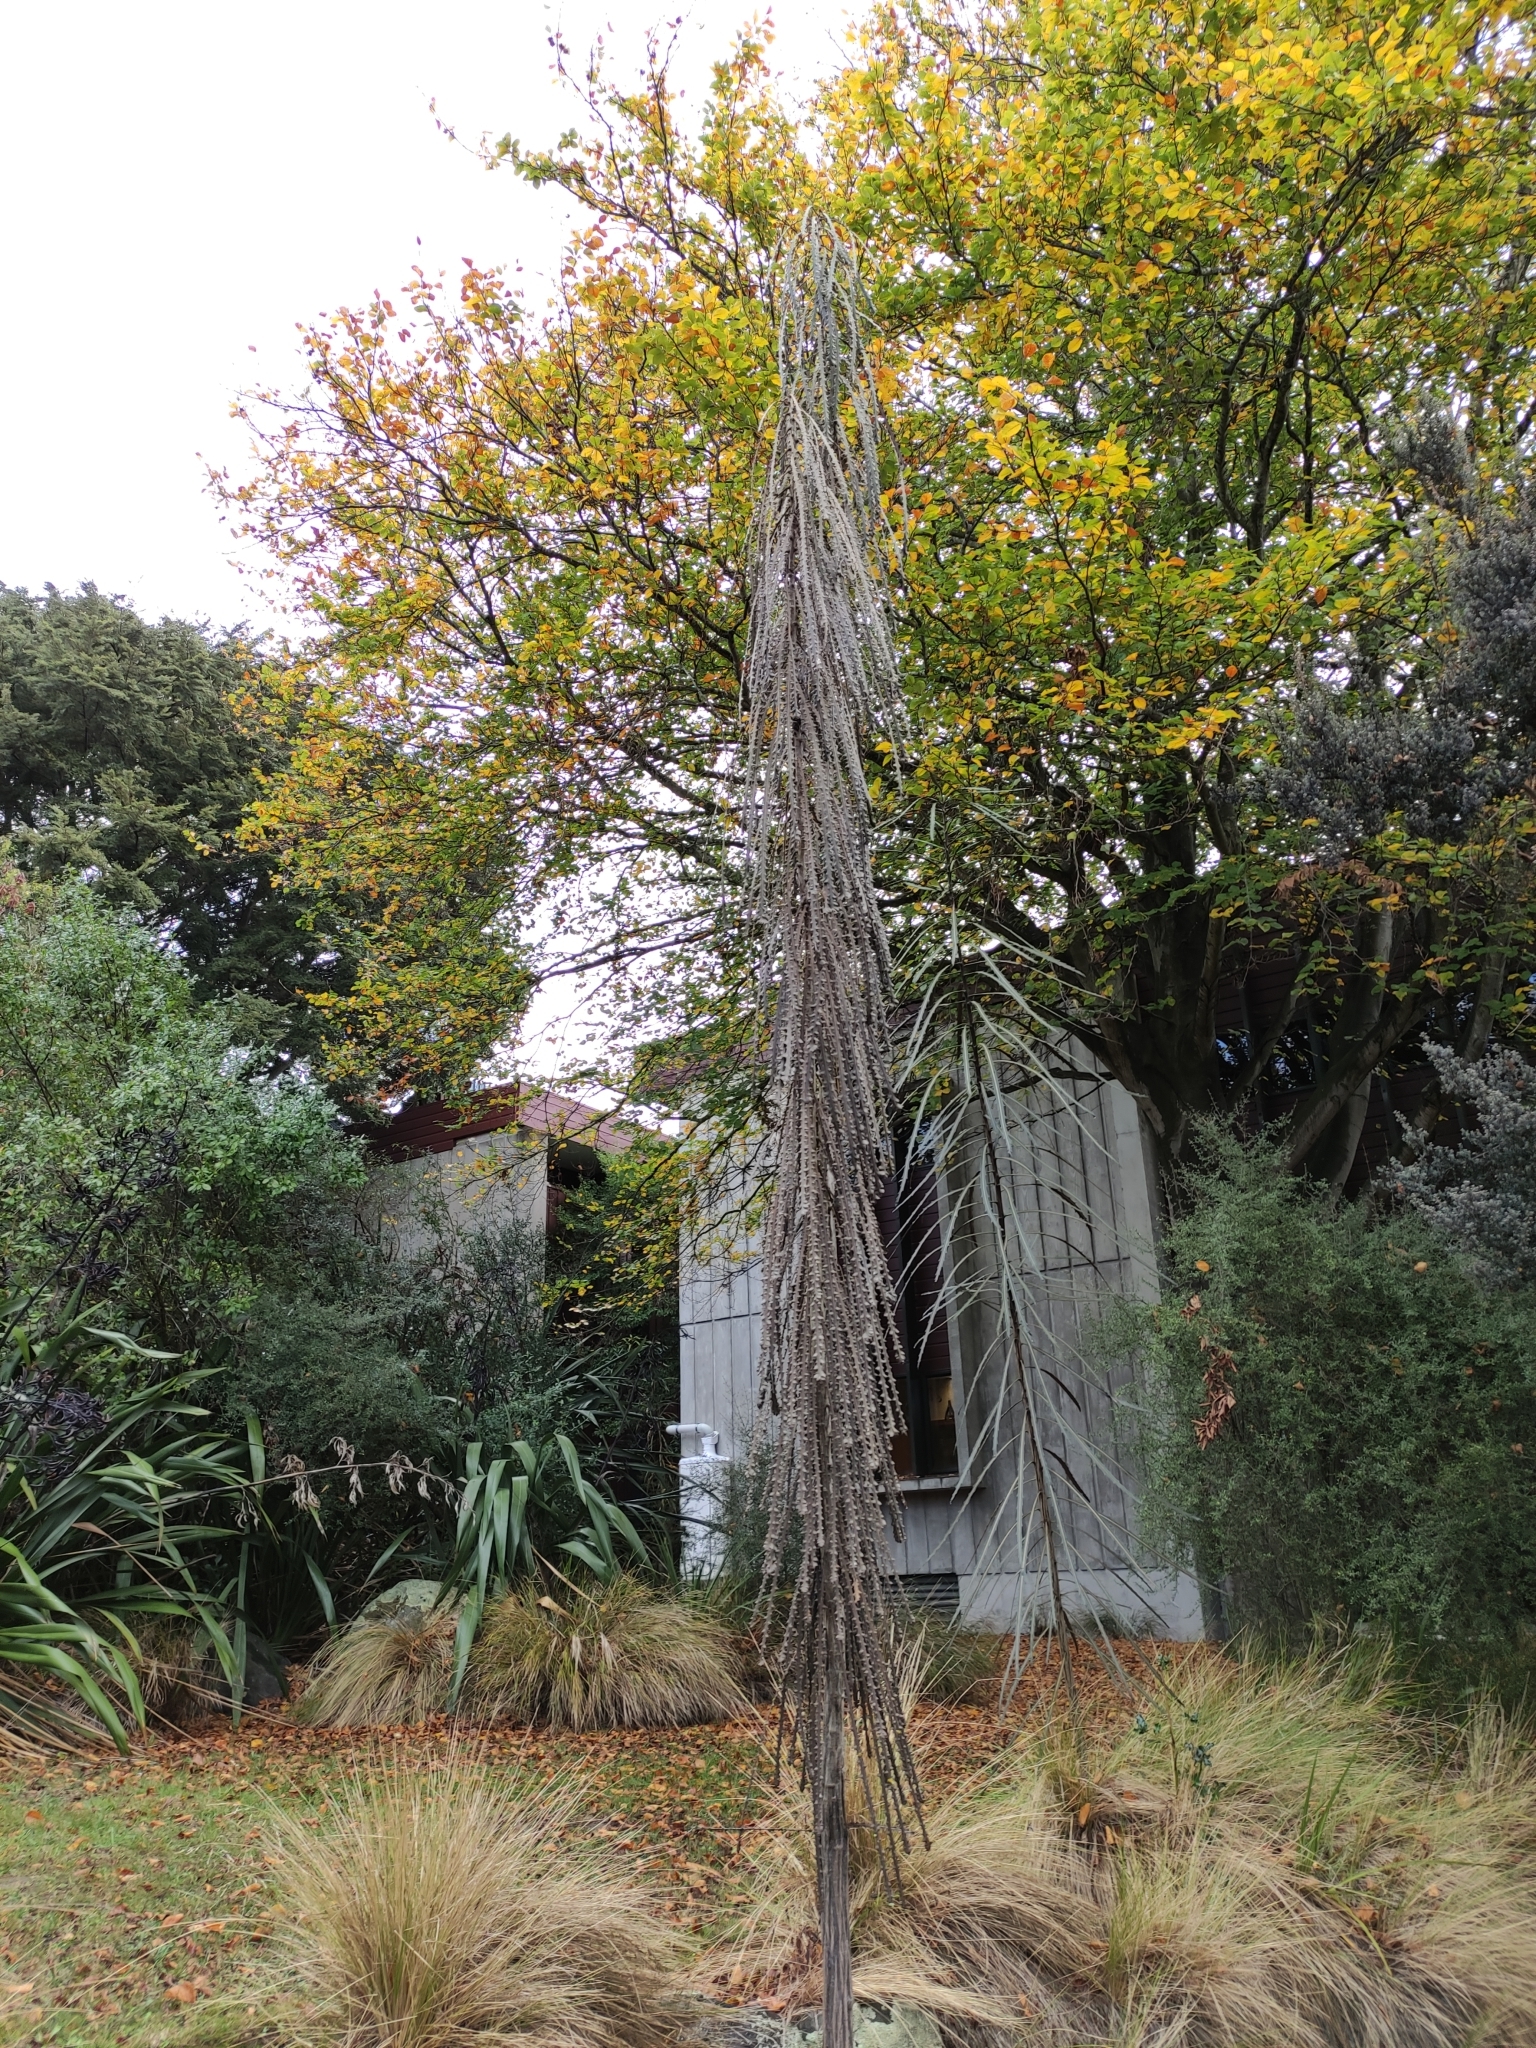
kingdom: Plantae
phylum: Tracheophyta
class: Magnoliopsida
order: Apiales
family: Araliaceae
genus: Pseudopanax
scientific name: Pseudopanax ferox
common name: Fierce lancewood
